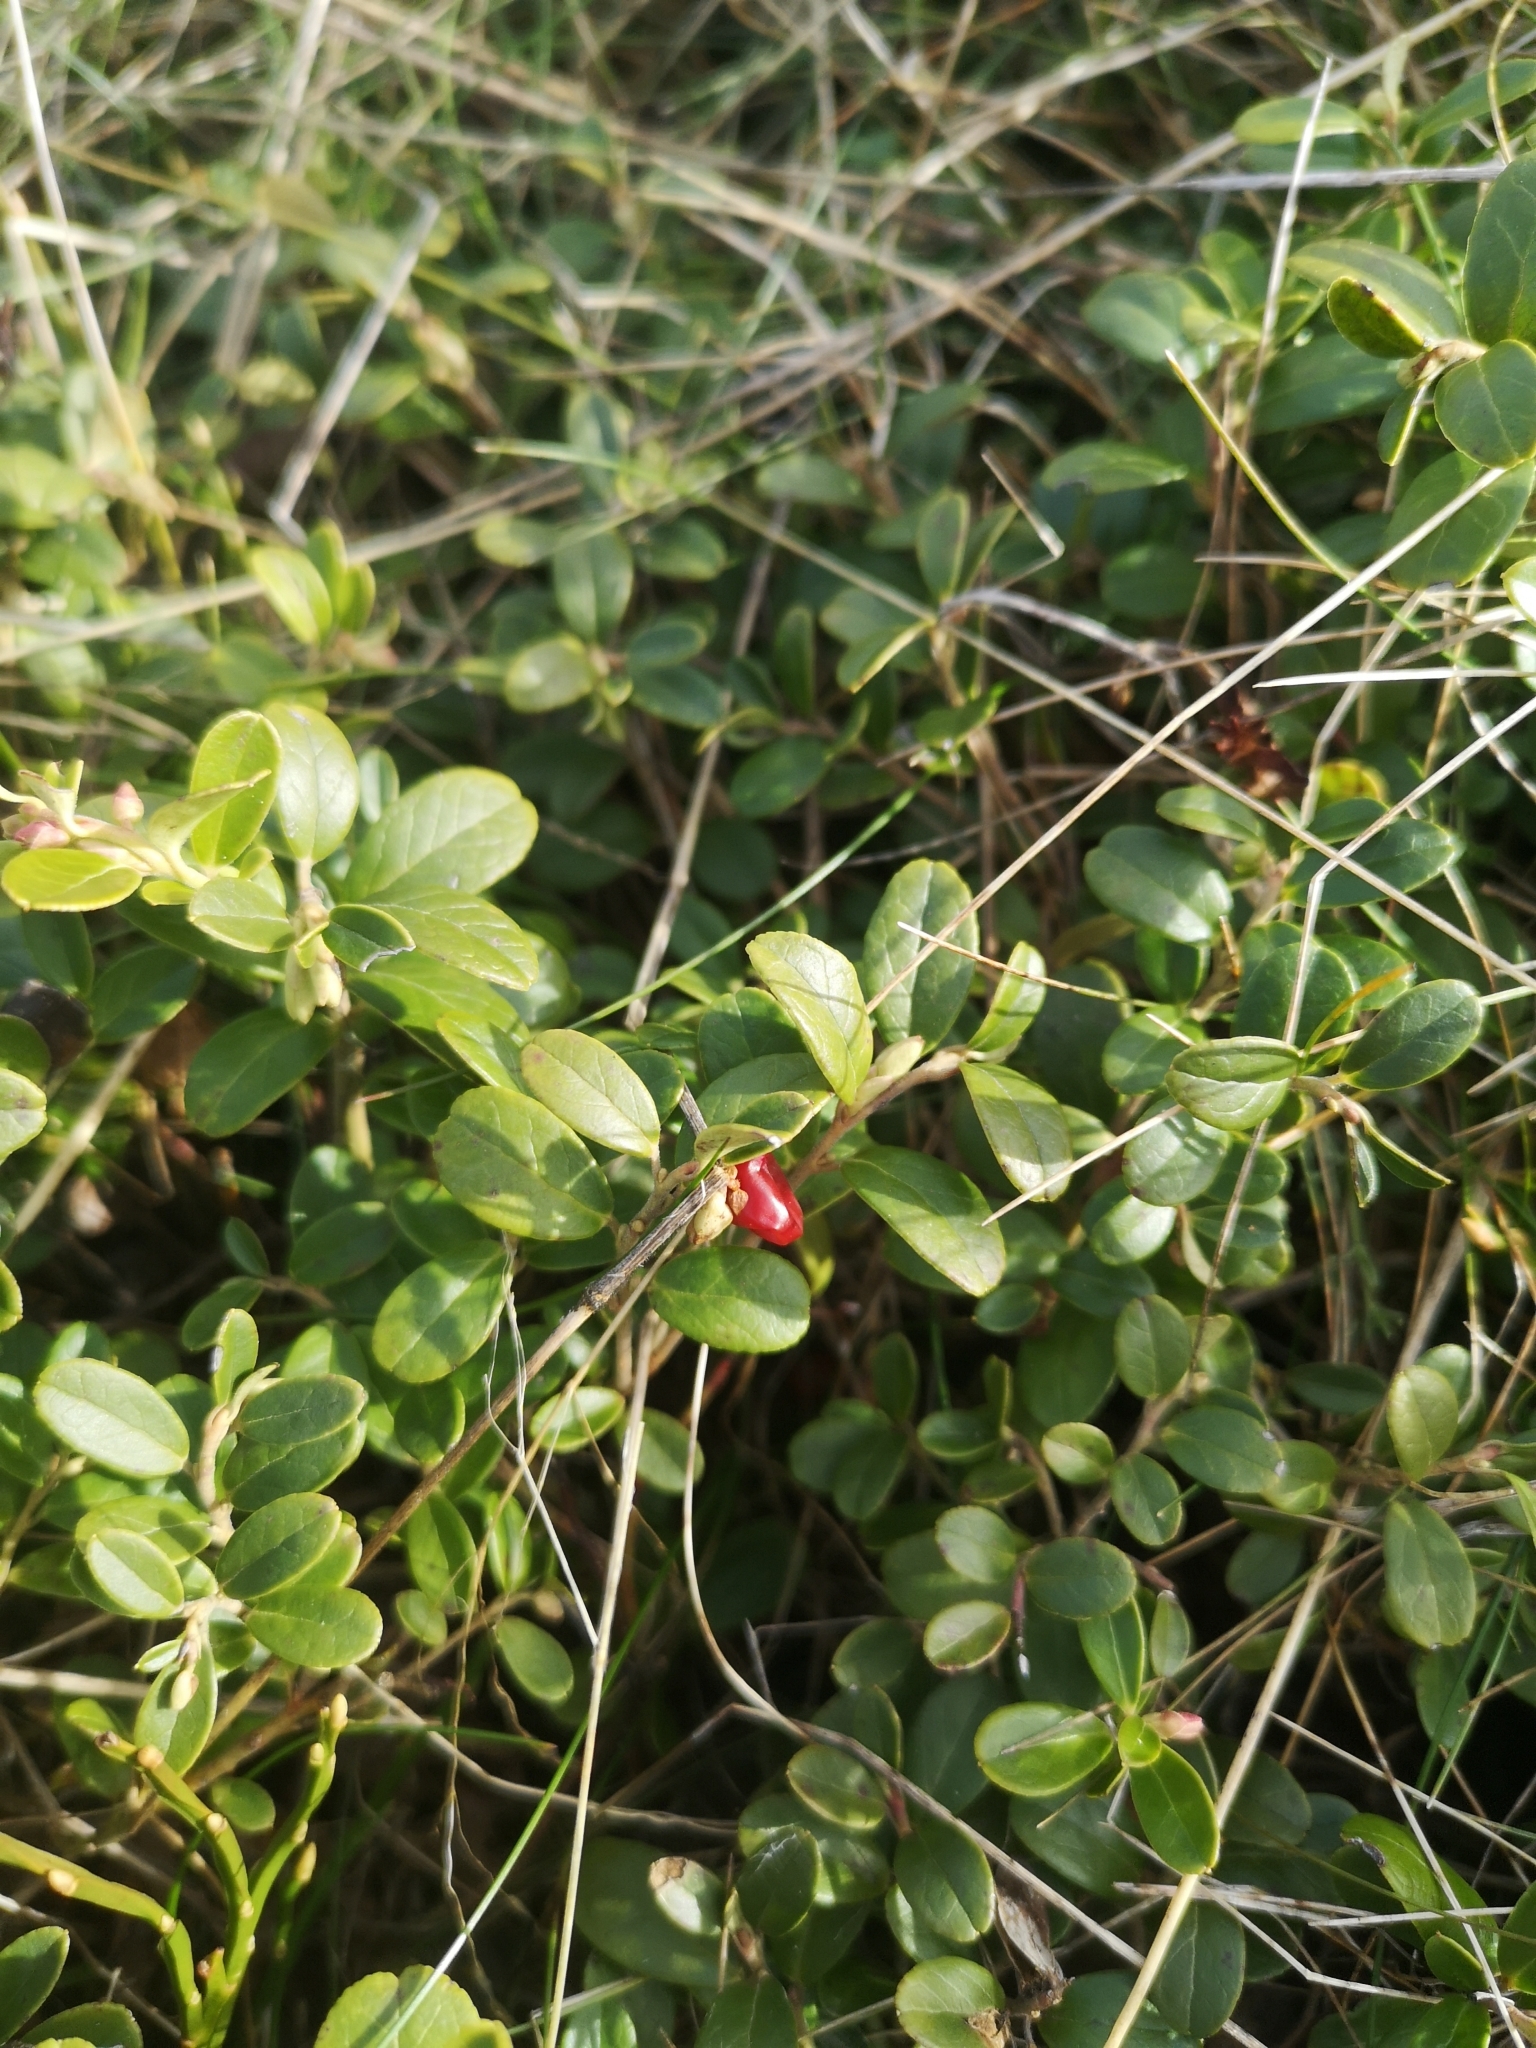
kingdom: Plantae
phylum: Tracheophyta
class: Magnoliopsida
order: Ericales
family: Ericaceae
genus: Vaccinium
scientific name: Vaccinium vitis-idaea
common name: Cowberry
